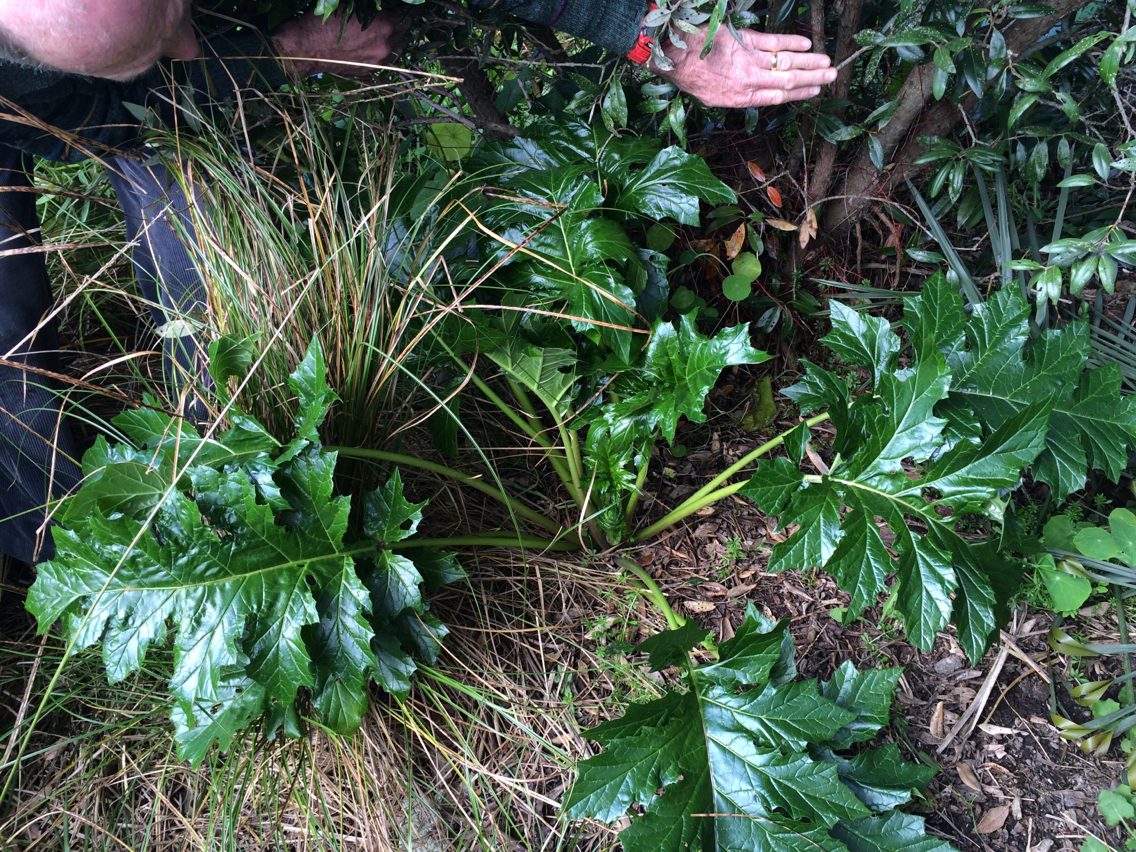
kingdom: Plantae
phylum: Tracheophyta
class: Magnoliopsida
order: Lamiales
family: Acanthaceae
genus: Acanthus
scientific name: Acanthus mollis
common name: Bear's-breech
